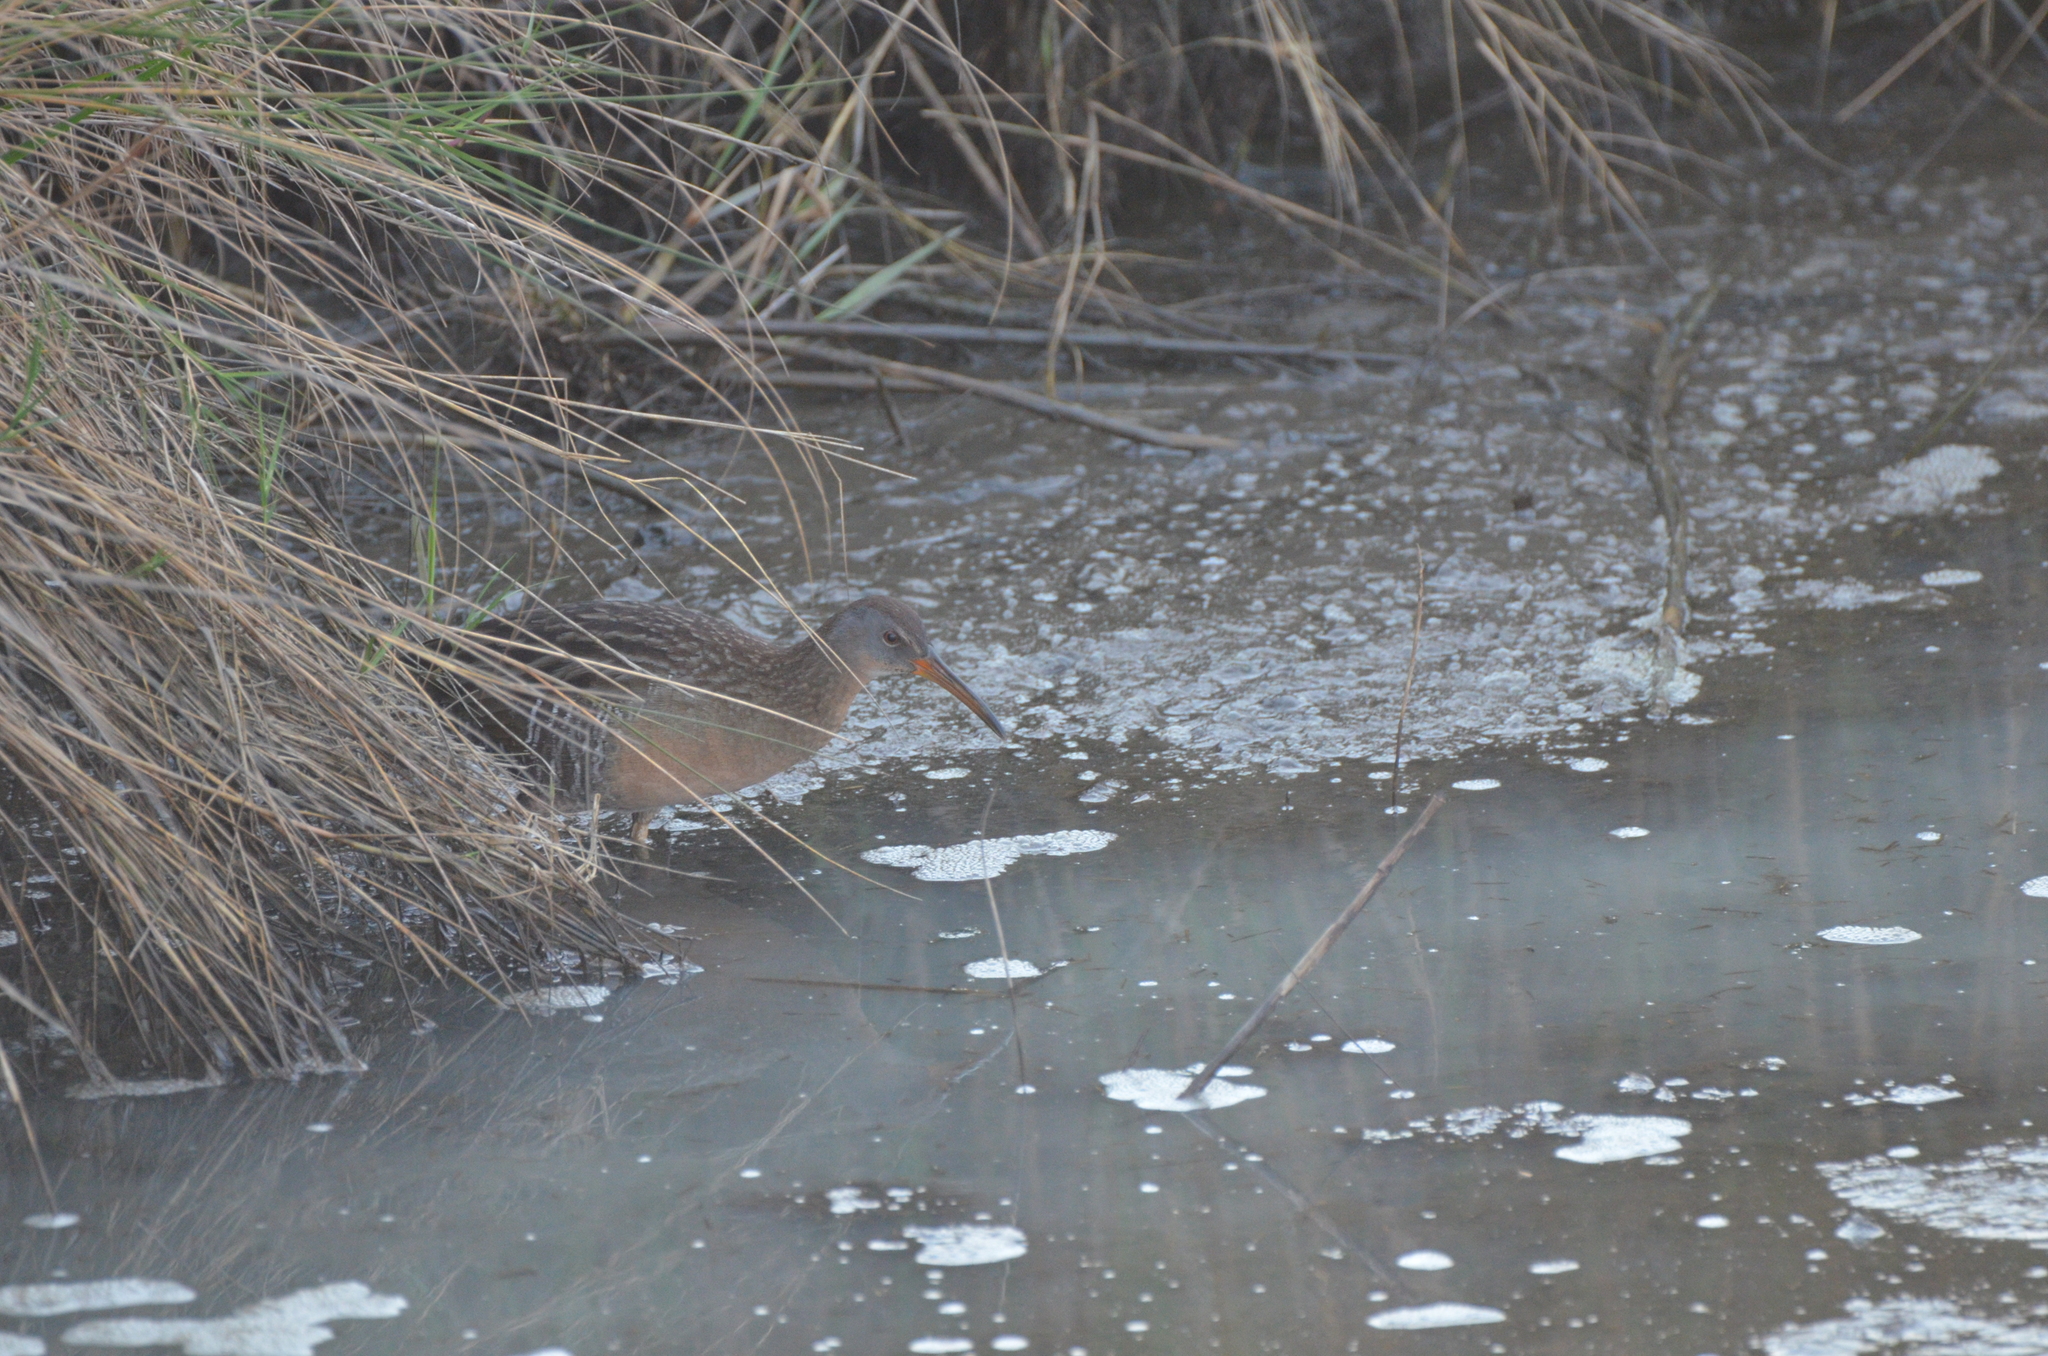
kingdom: Animalia
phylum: Chordata
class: Aves
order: Gruiformes
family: Rallidae
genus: Rallus
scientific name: Rallus crepitans
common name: Clapper rail
